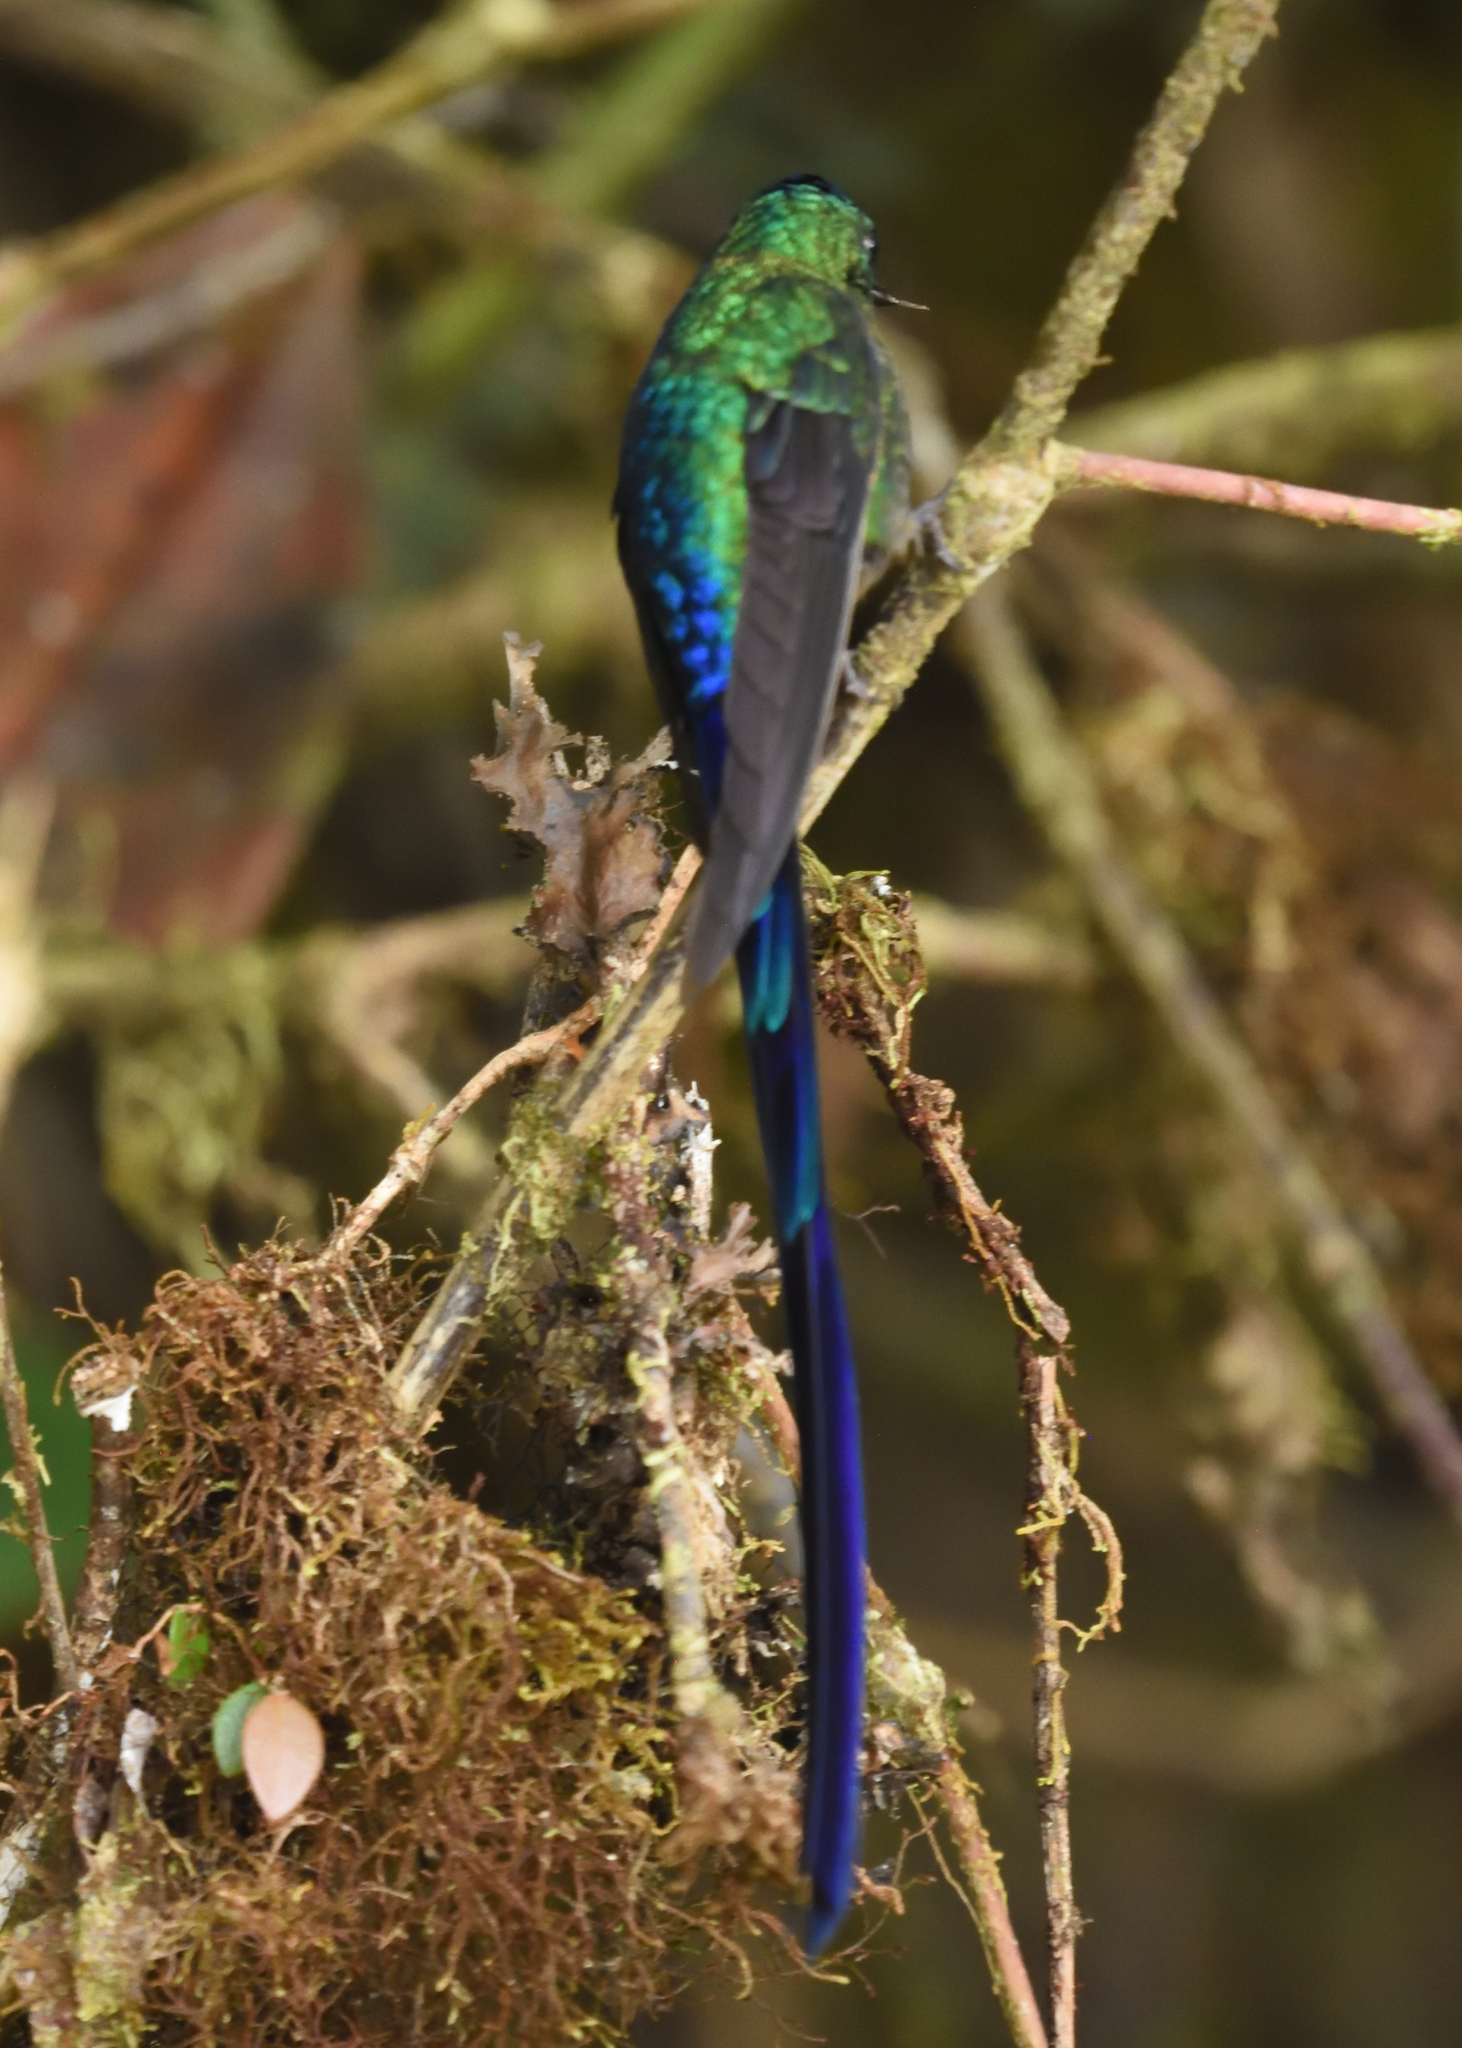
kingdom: Animalia
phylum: Chordata
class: Aves
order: Apodiformes
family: Trochilidae
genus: Aglaiocercus
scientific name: Aglaiocercus coelestis
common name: Violet-tailed sylph
